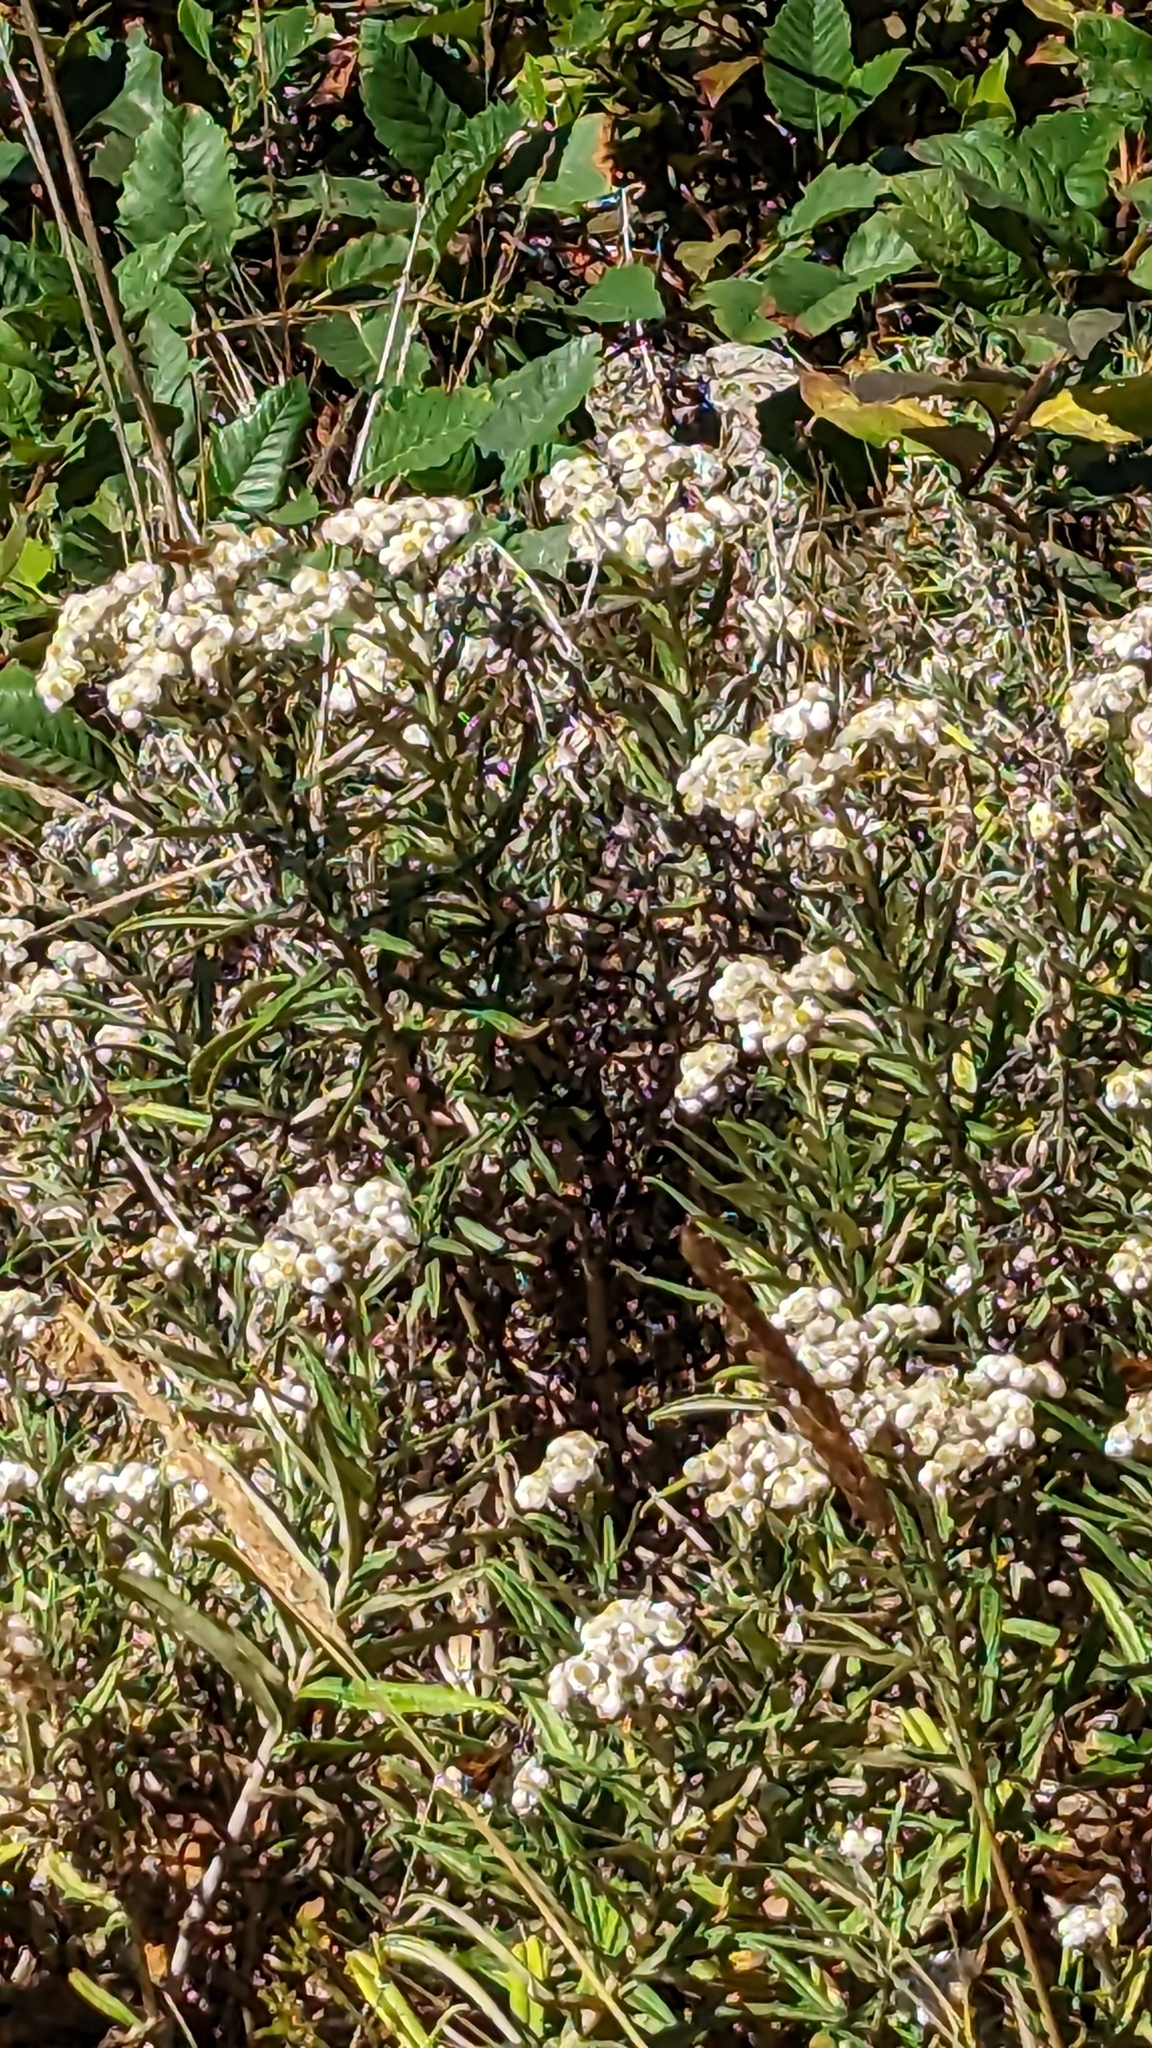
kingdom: Plantae
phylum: Tracheophyta
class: Magnoliopsida
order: Asterales
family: Asteraceae
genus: Anaphalis
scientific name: Anaphalis margaritacea
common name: Pearly everlasting
